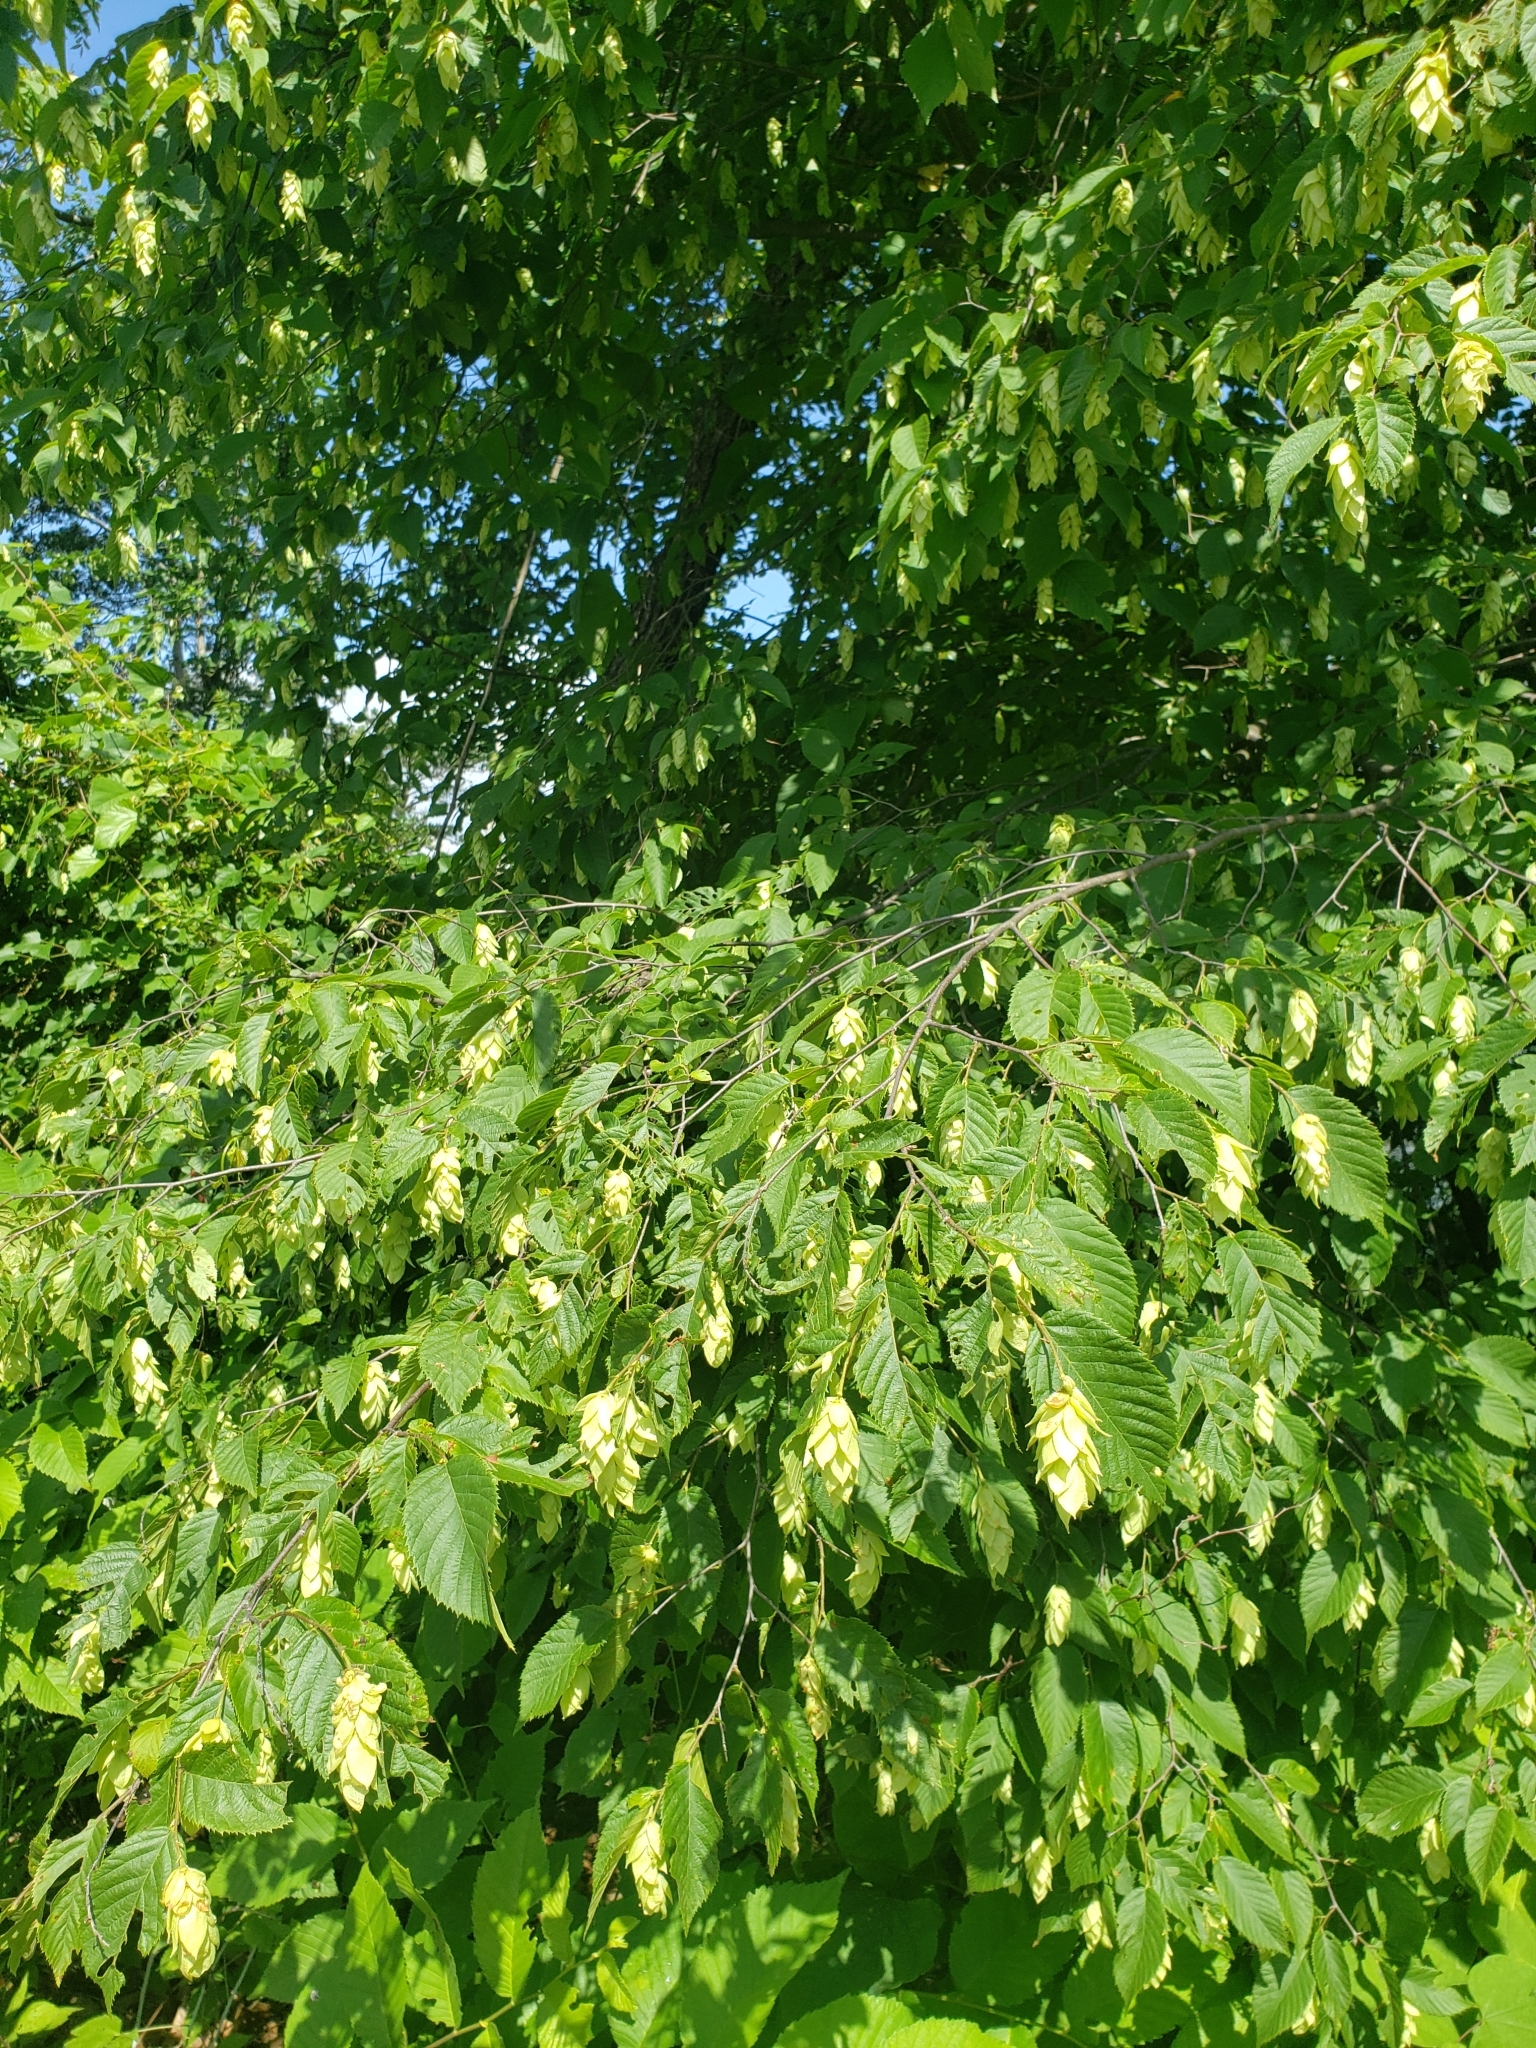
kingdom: Plantae
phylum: Tracheophyta
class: Magnoliopsida
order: Fagales
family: Betulaceae
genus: Ostrya
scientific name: Ostrya virginiana
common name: Ironwood
